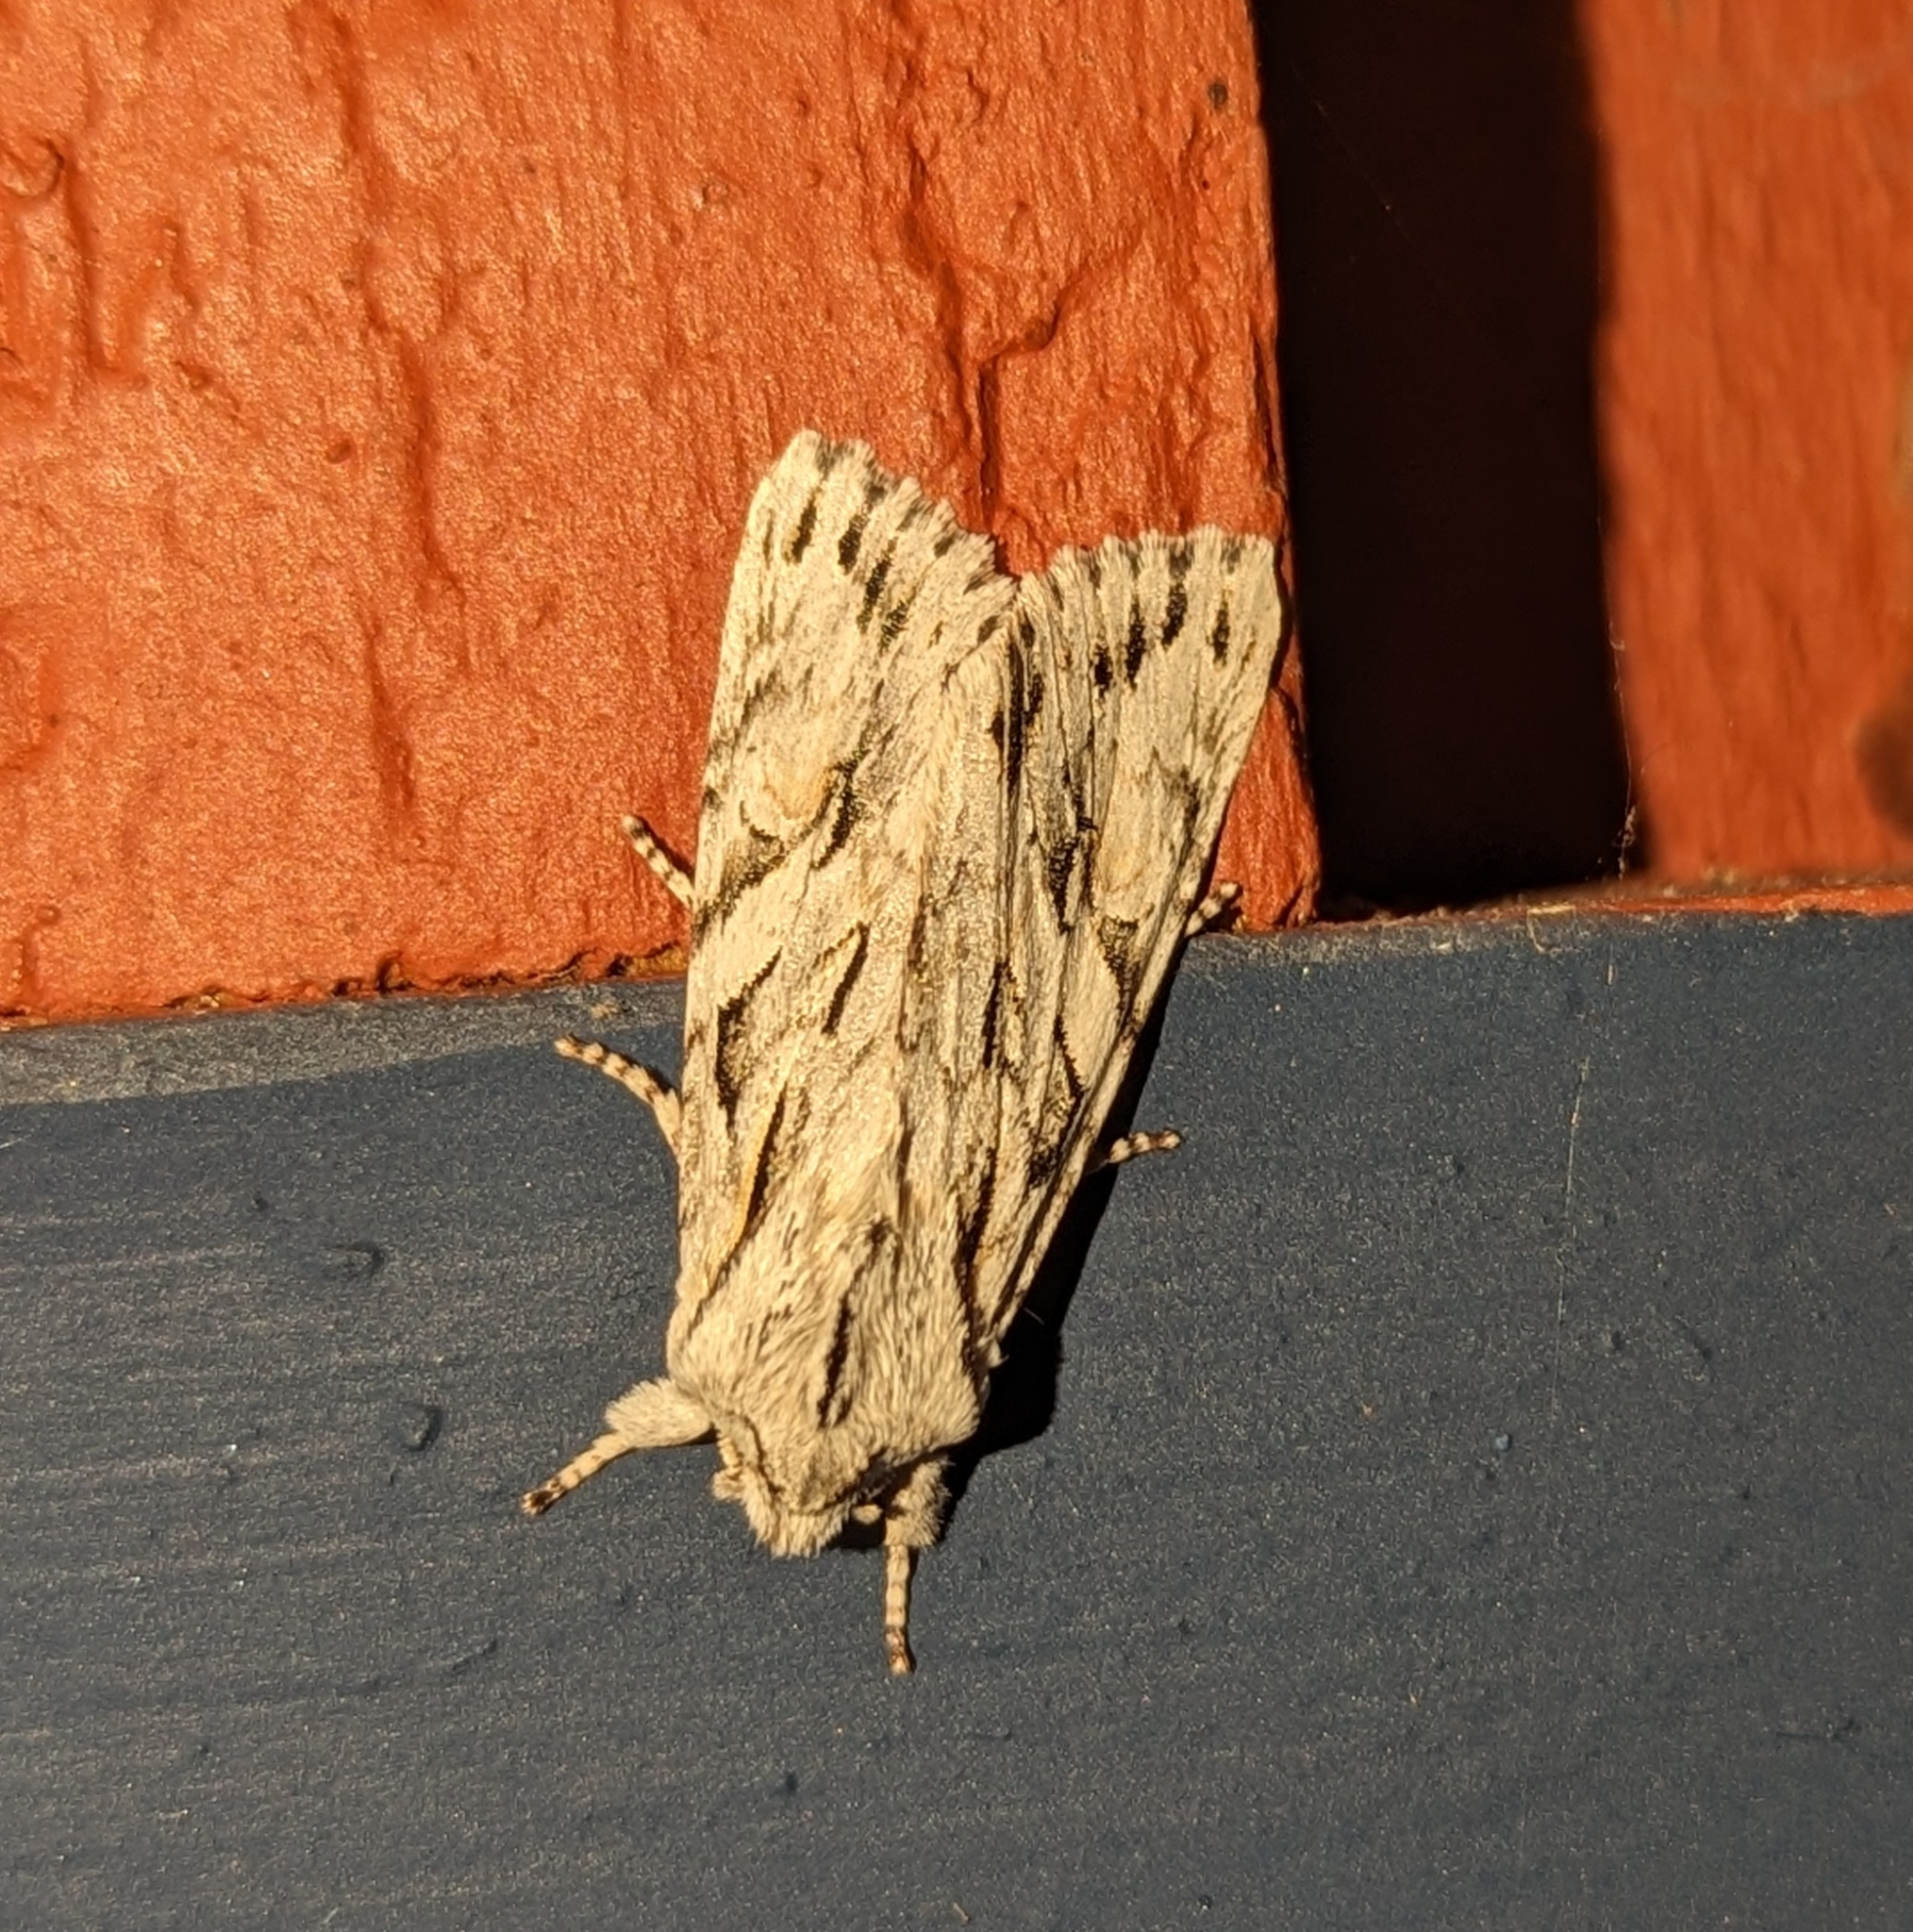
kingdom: Animalia
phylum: Arthropoda
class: Insecta
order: Lepidoptera
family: Noctuidae
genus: Egira
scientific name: Egira crucialis
